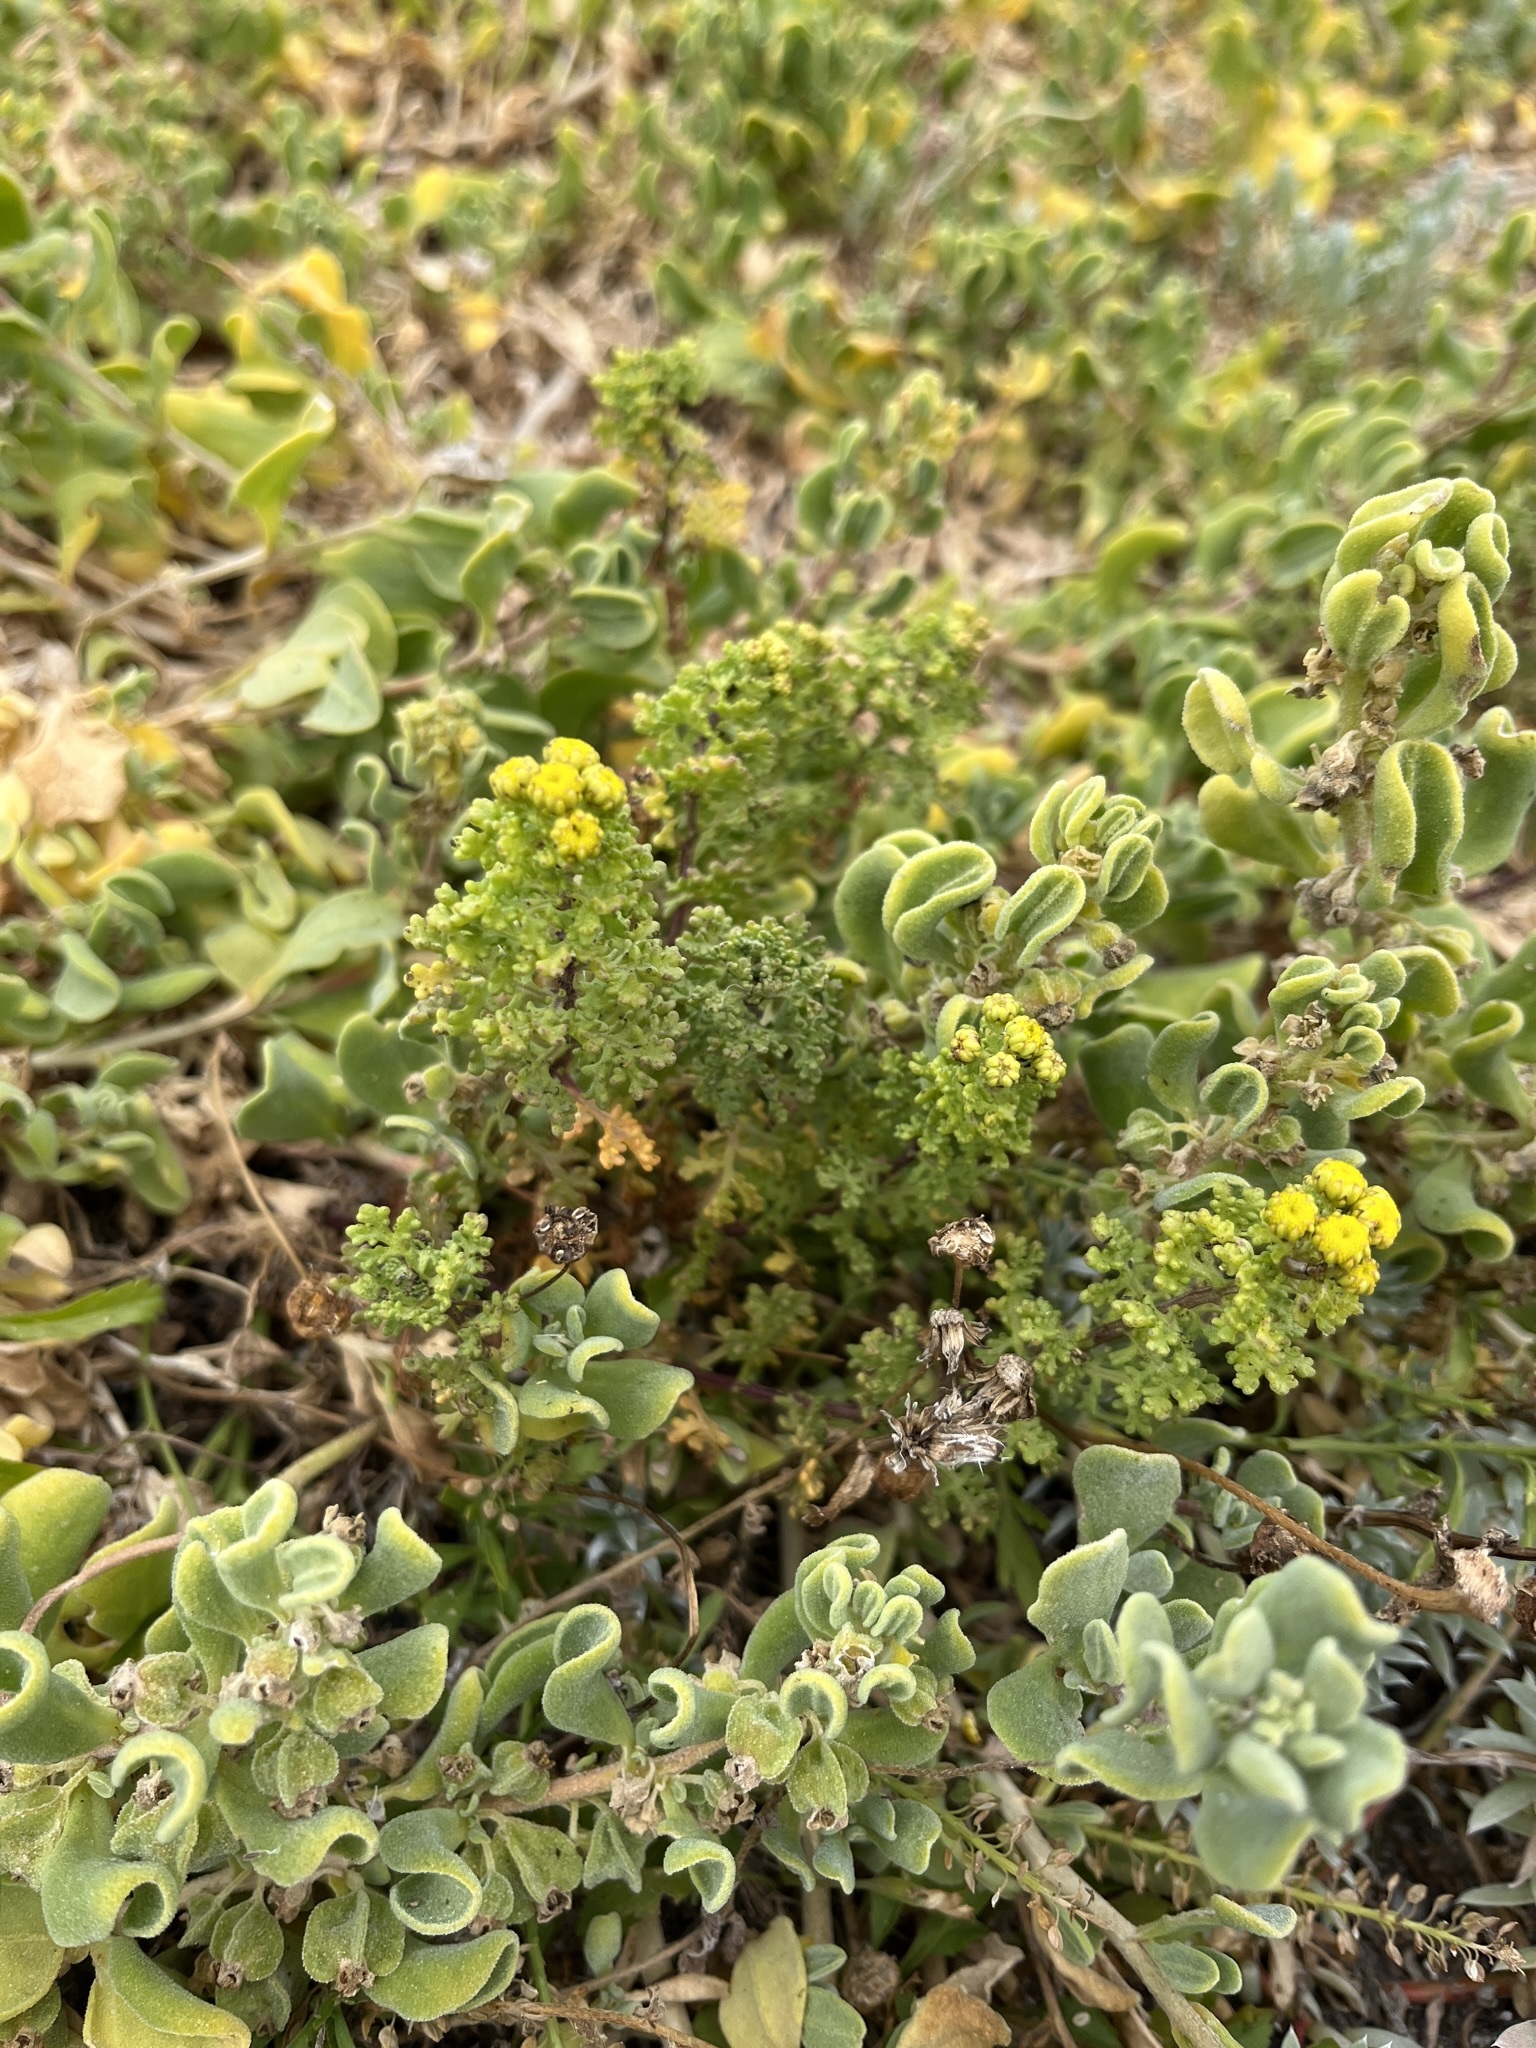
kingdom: Plantae
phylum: Tracheophyta
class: Magnoliopsida
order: Asterales
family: Asteraceae
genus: Oncosiphon
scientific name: Oncosiphon sabulosus
